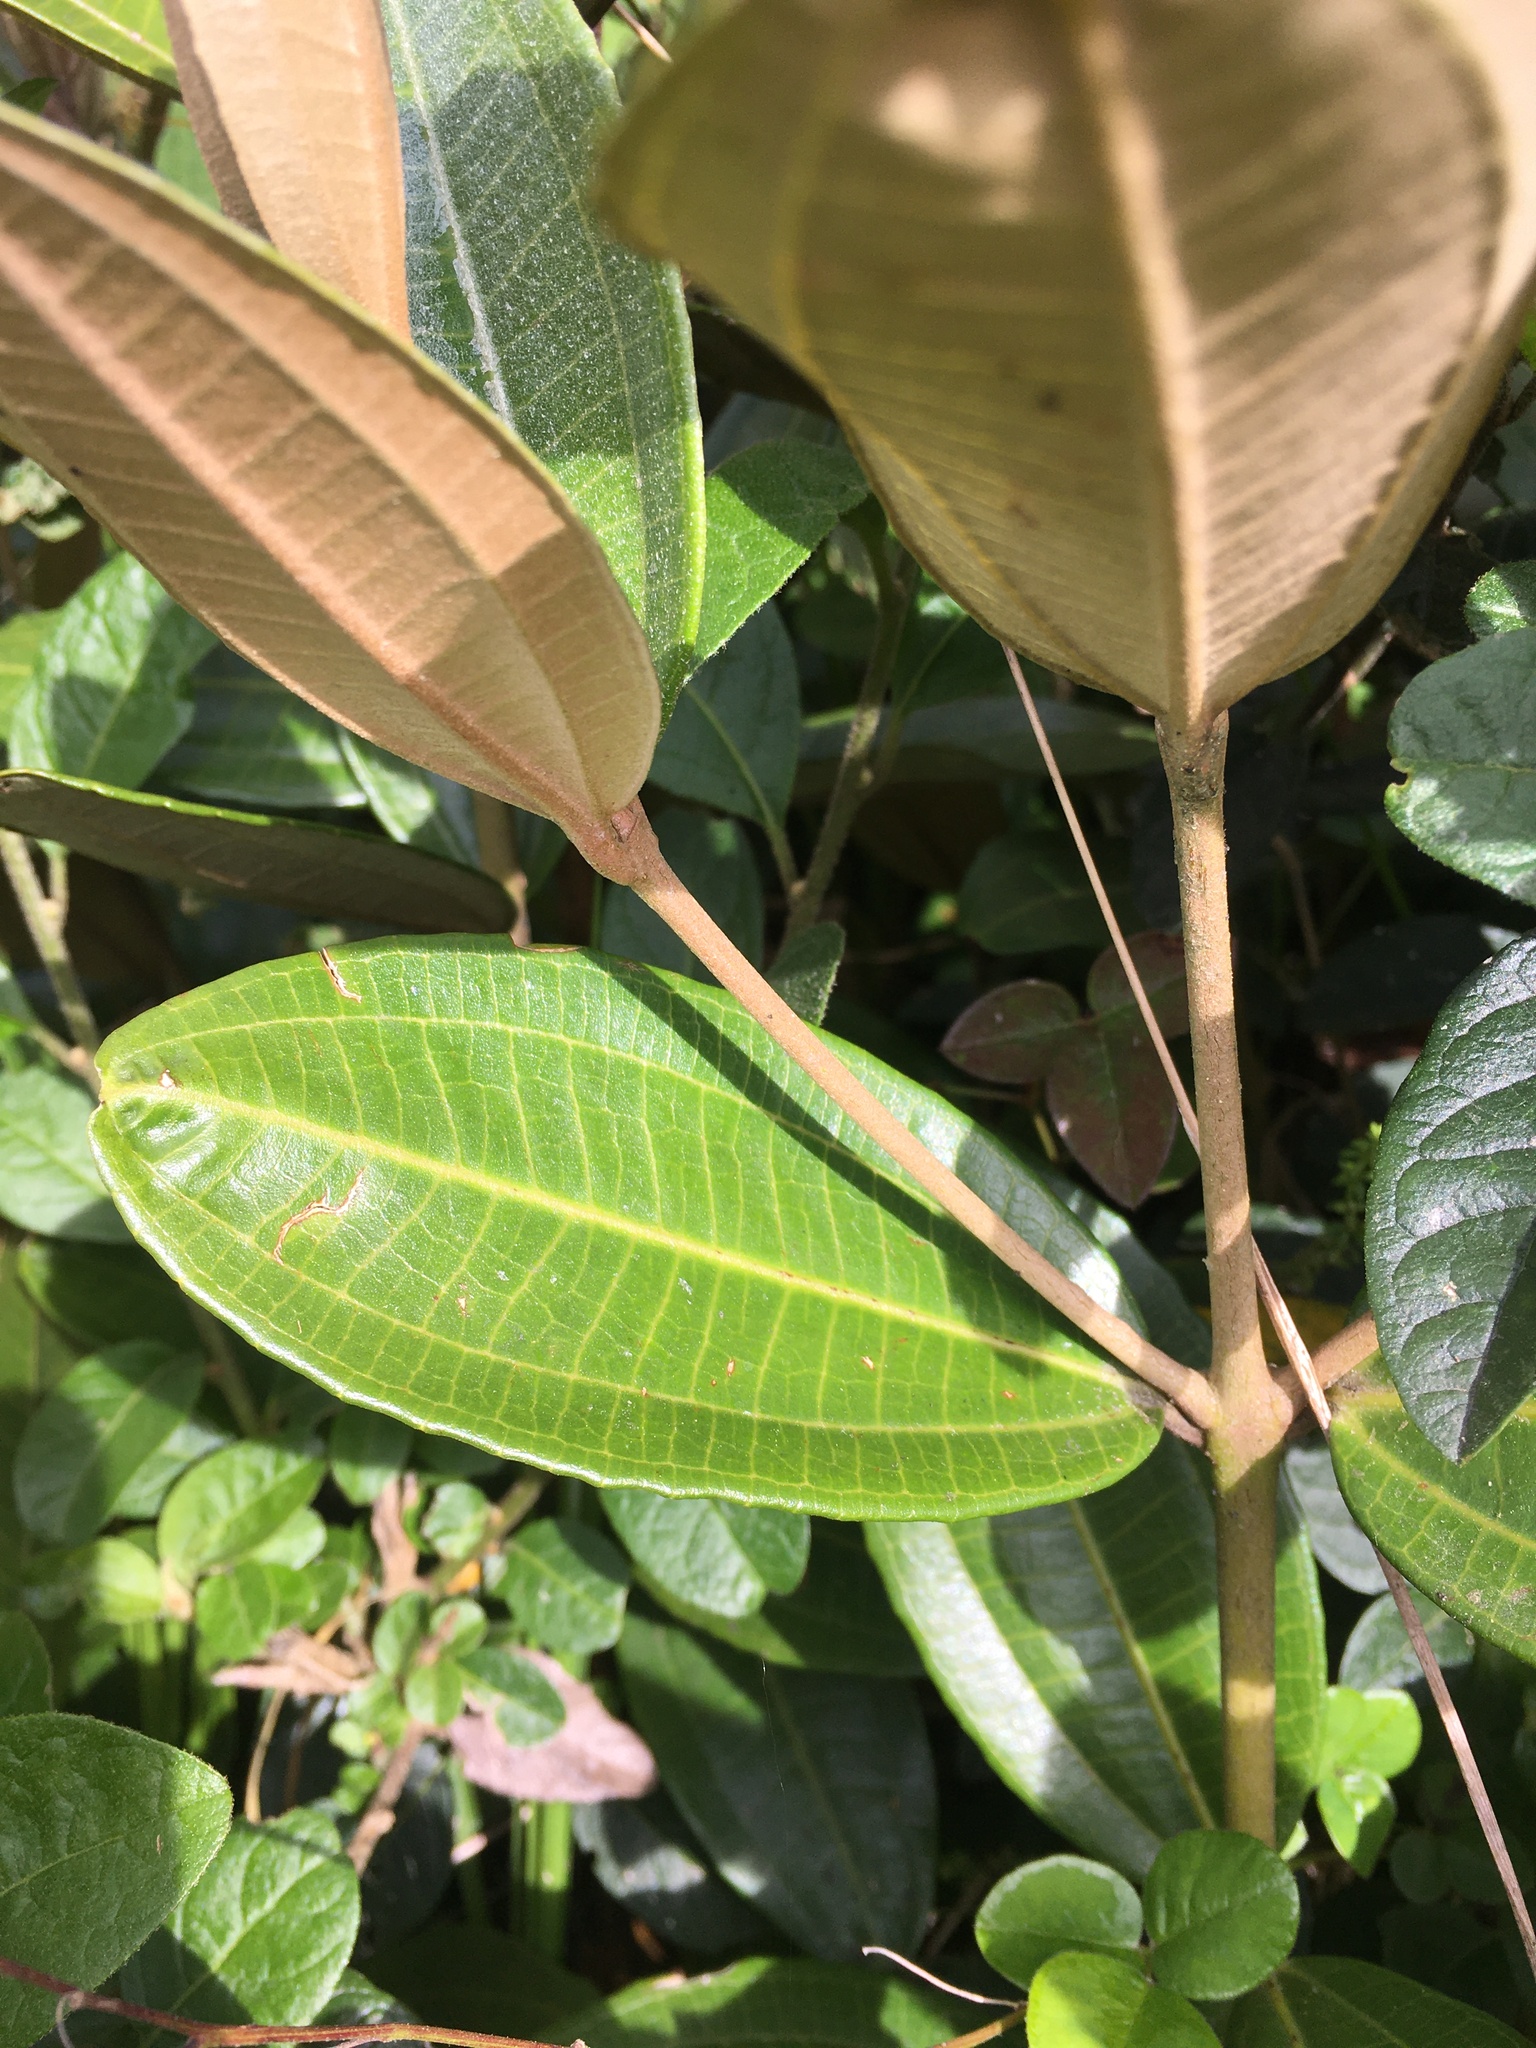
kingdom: Plantae
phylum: Tracheophyta
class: Magnoliopsida
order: Myrtales
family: Melastomataceae
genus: Miconia
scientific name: Miconia squamulosa
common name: Squamulose maya
